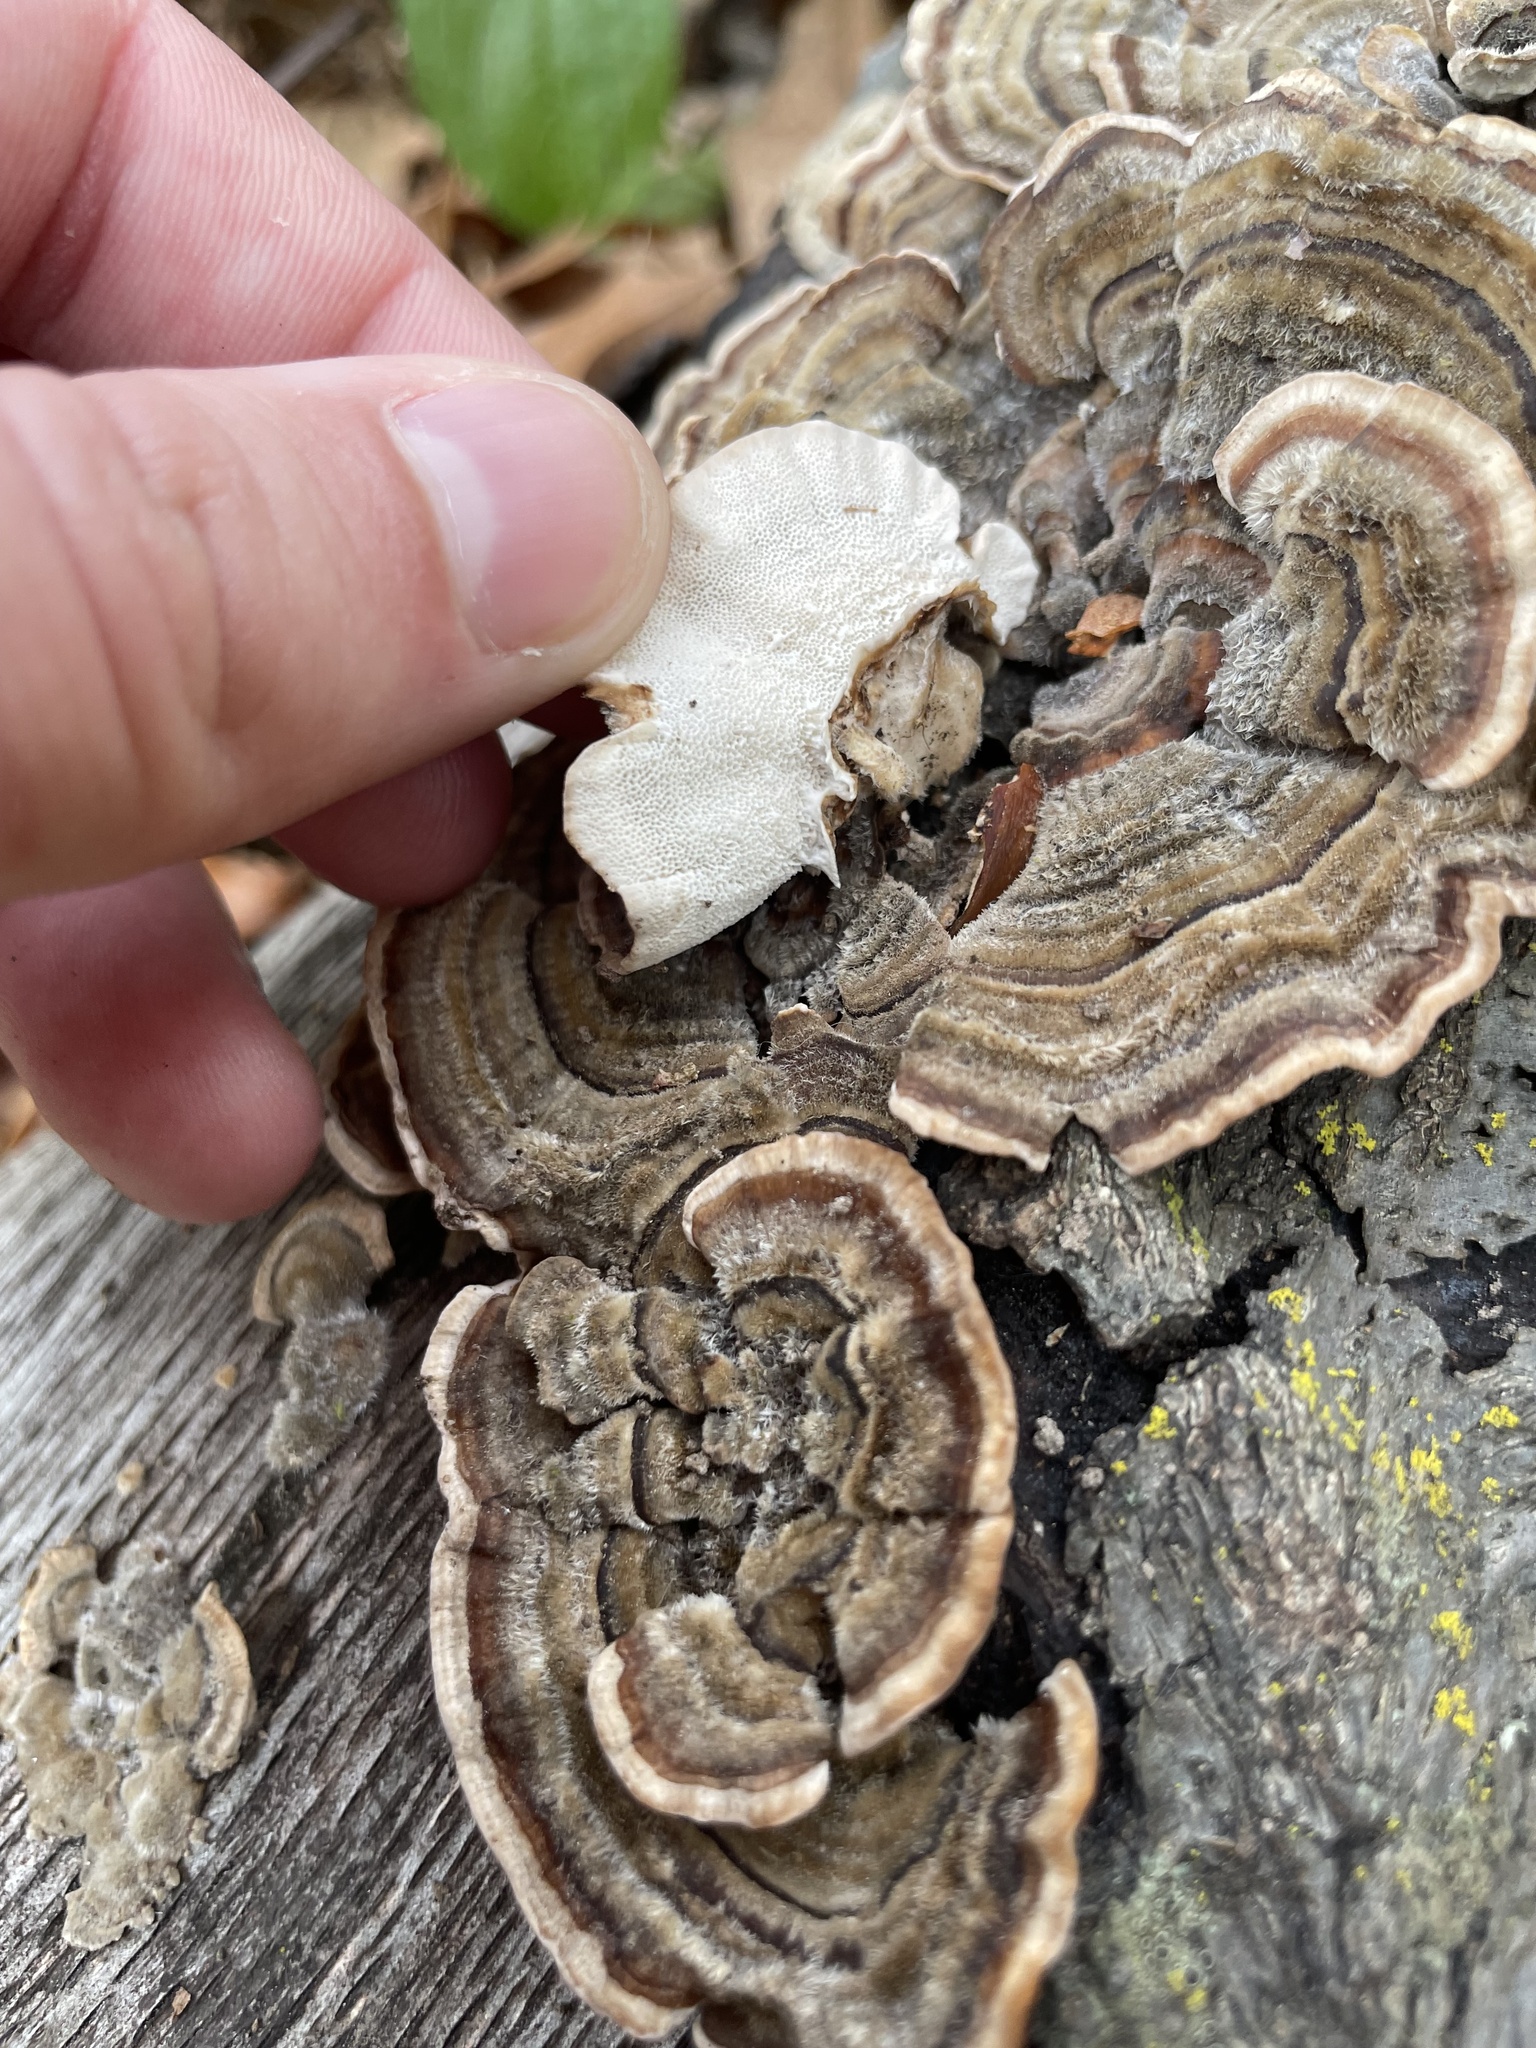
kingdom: Fungi
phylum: Basidiomycota
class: Agaricomycetes
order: Polyporales
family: Polyporaceae
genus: Trametes
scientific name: Trametes versicolor
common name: Turkeytail
